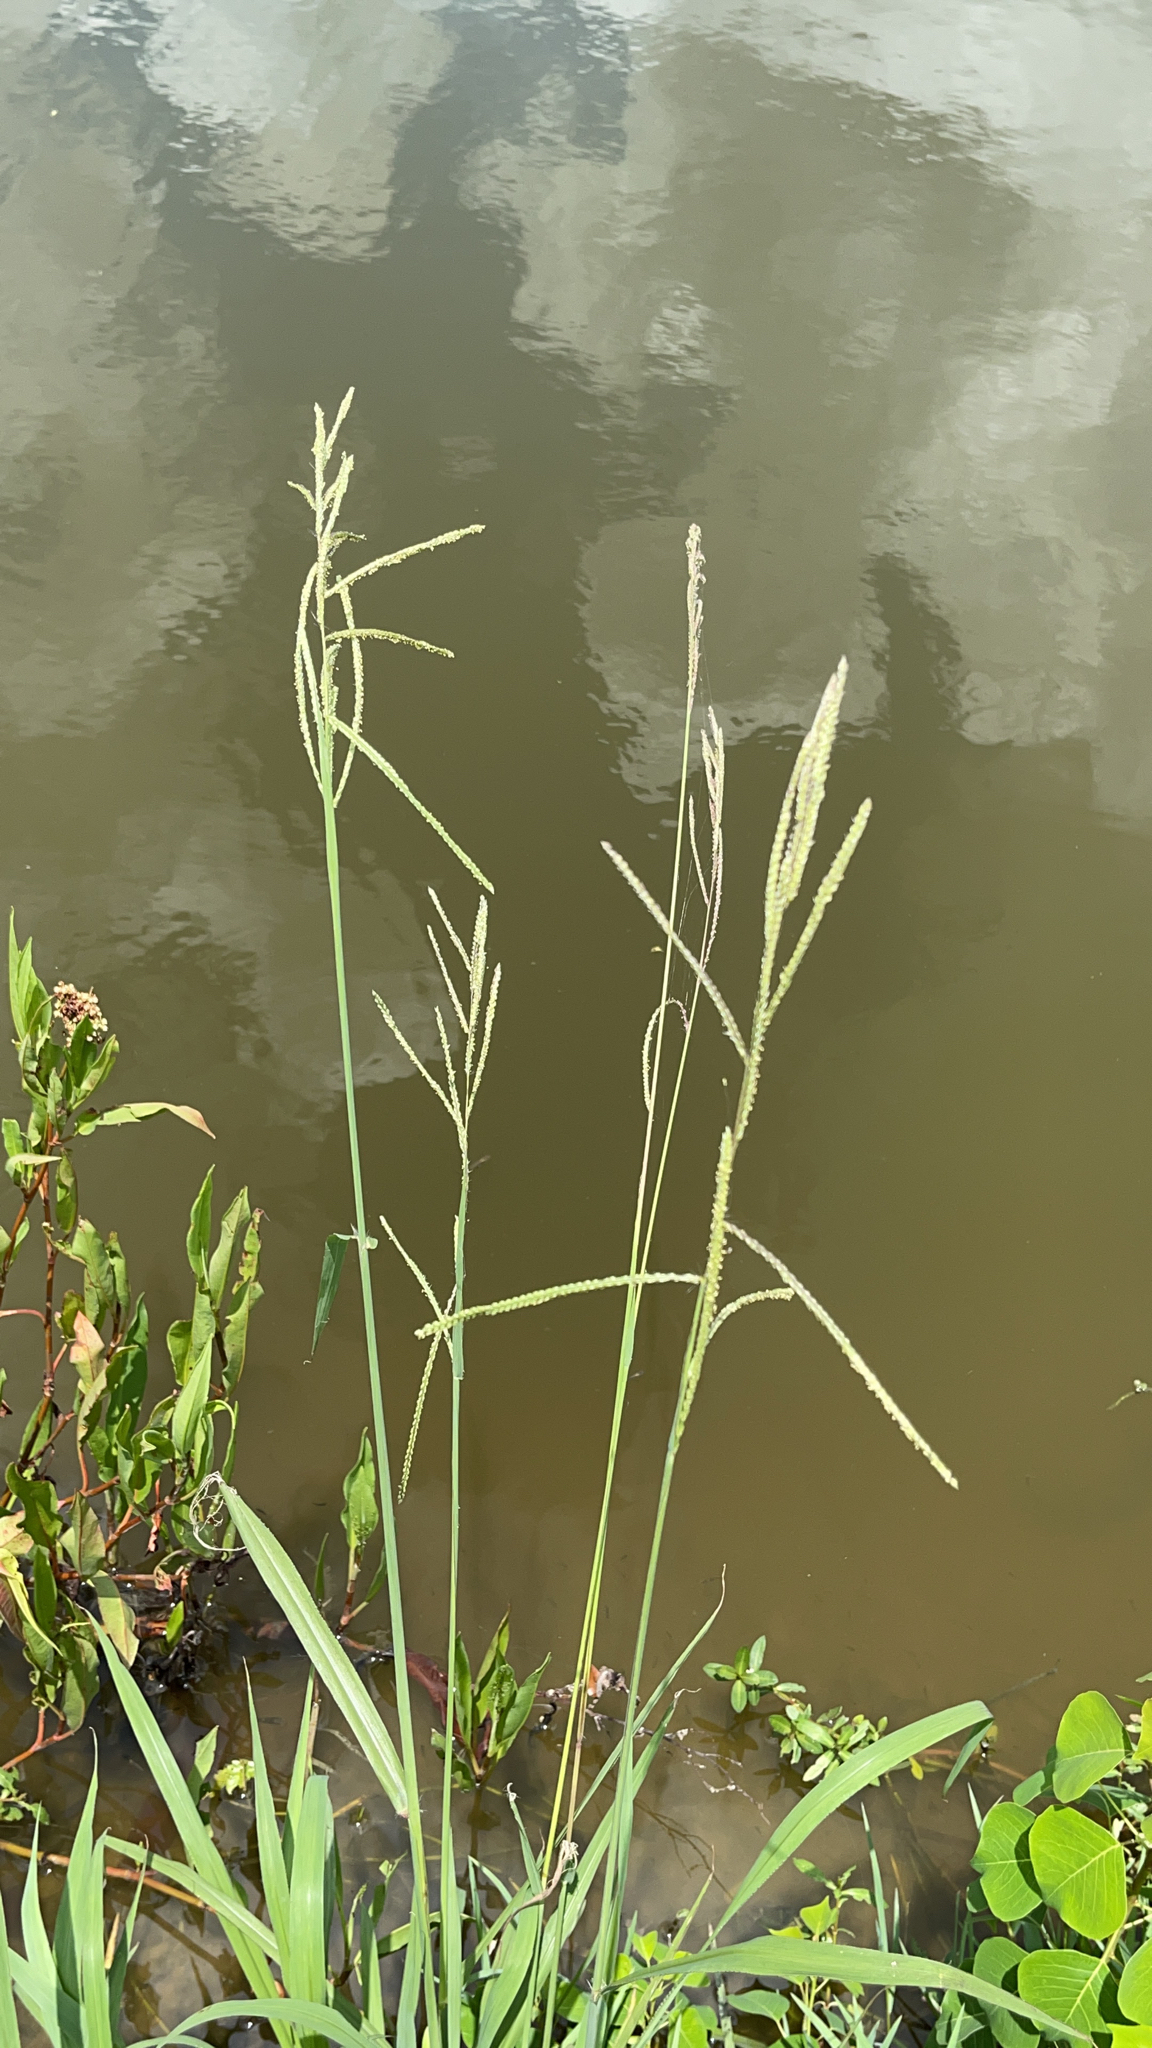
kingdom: Plantae
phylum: Tracheophyta
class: Liliopsida
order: Poales
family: Poaceae
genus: Paspalum
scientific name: Paspalum urvillei
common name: Vasey's grass
